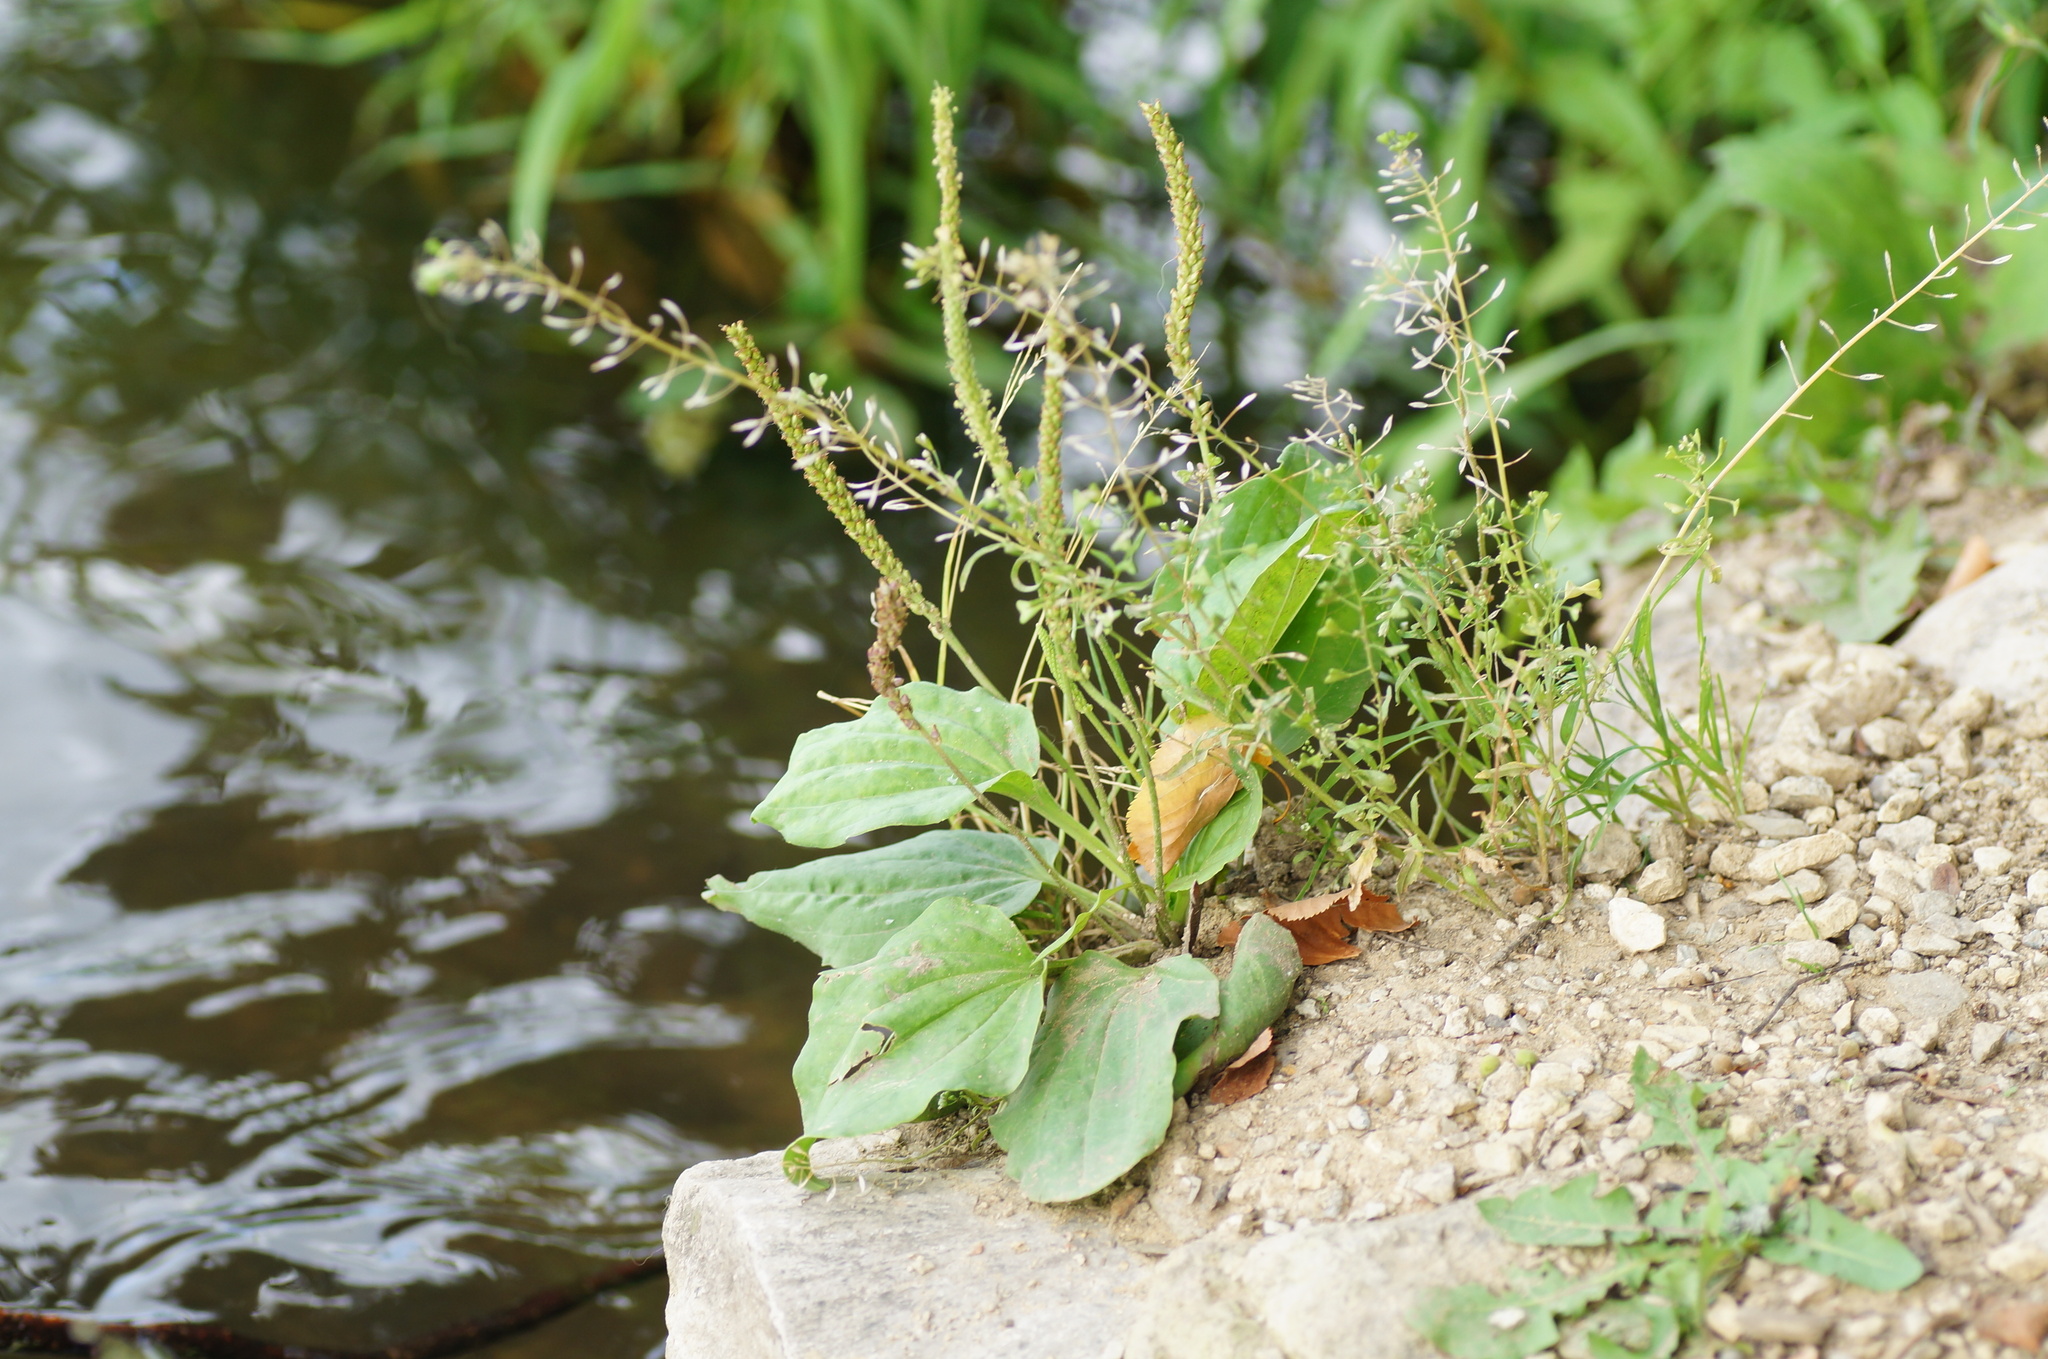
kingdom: Plantae
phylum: Tracheophyta
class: Magnoliopsida
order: Lamiales
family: Plantaginaceae
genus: Plantago
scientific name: Plantago major
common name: Common plantain
